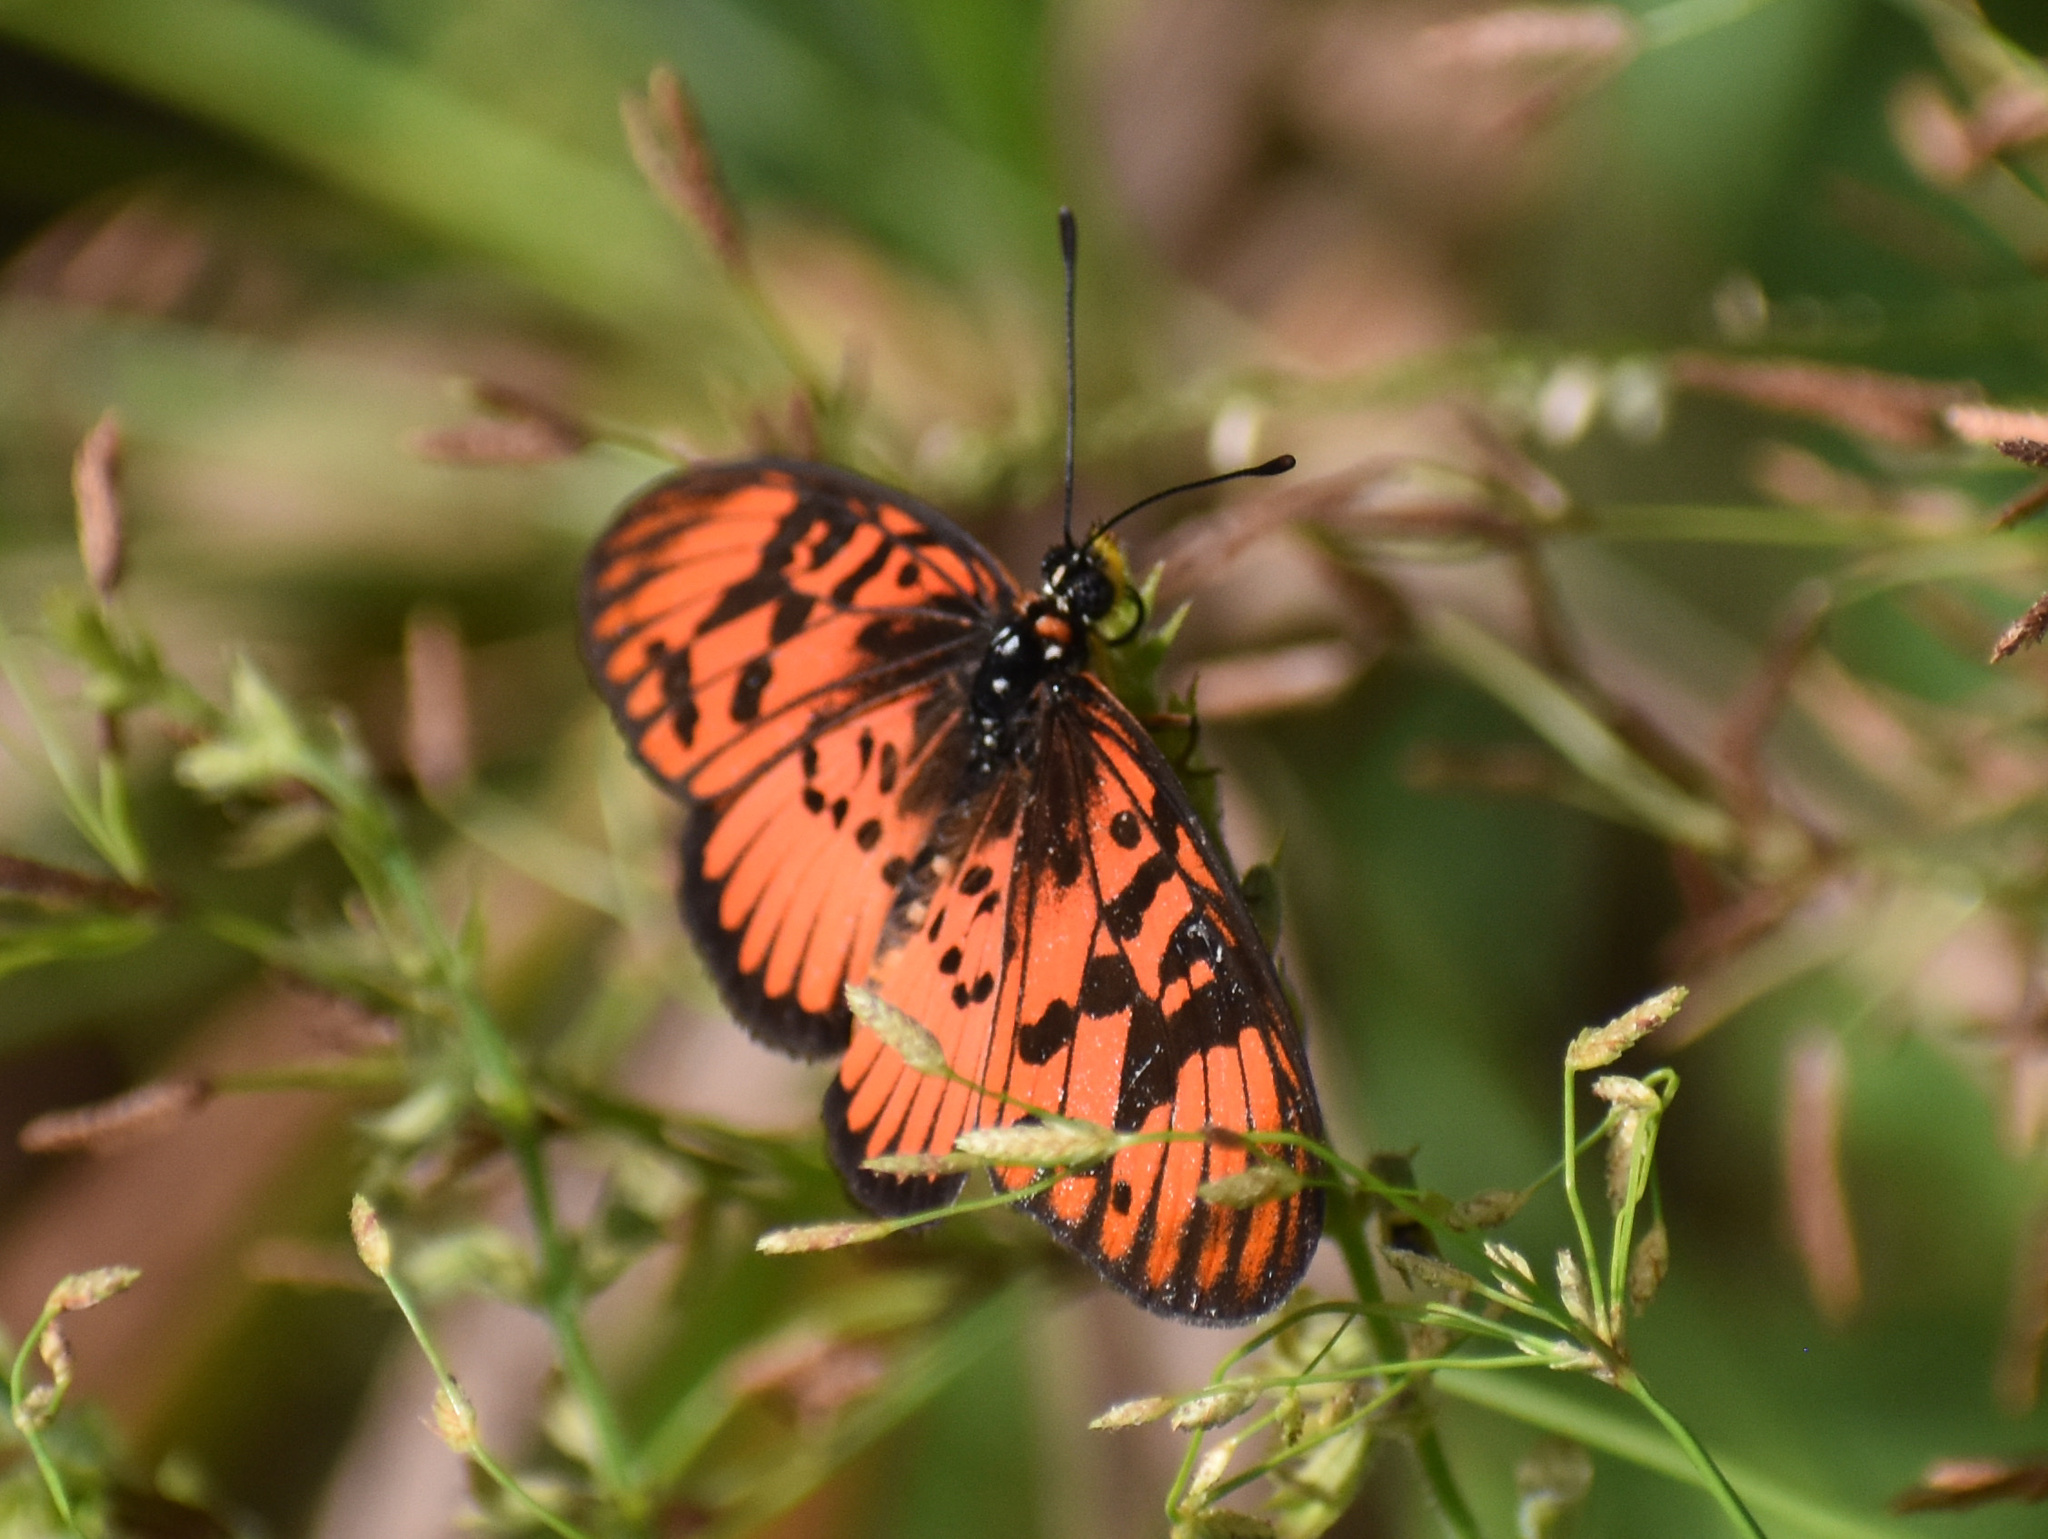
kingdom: Animalia
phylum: Arthropoda
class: Insecta
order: Lepidoptera
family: Nymphalidae
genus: Rubraea
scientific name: Rubraea
